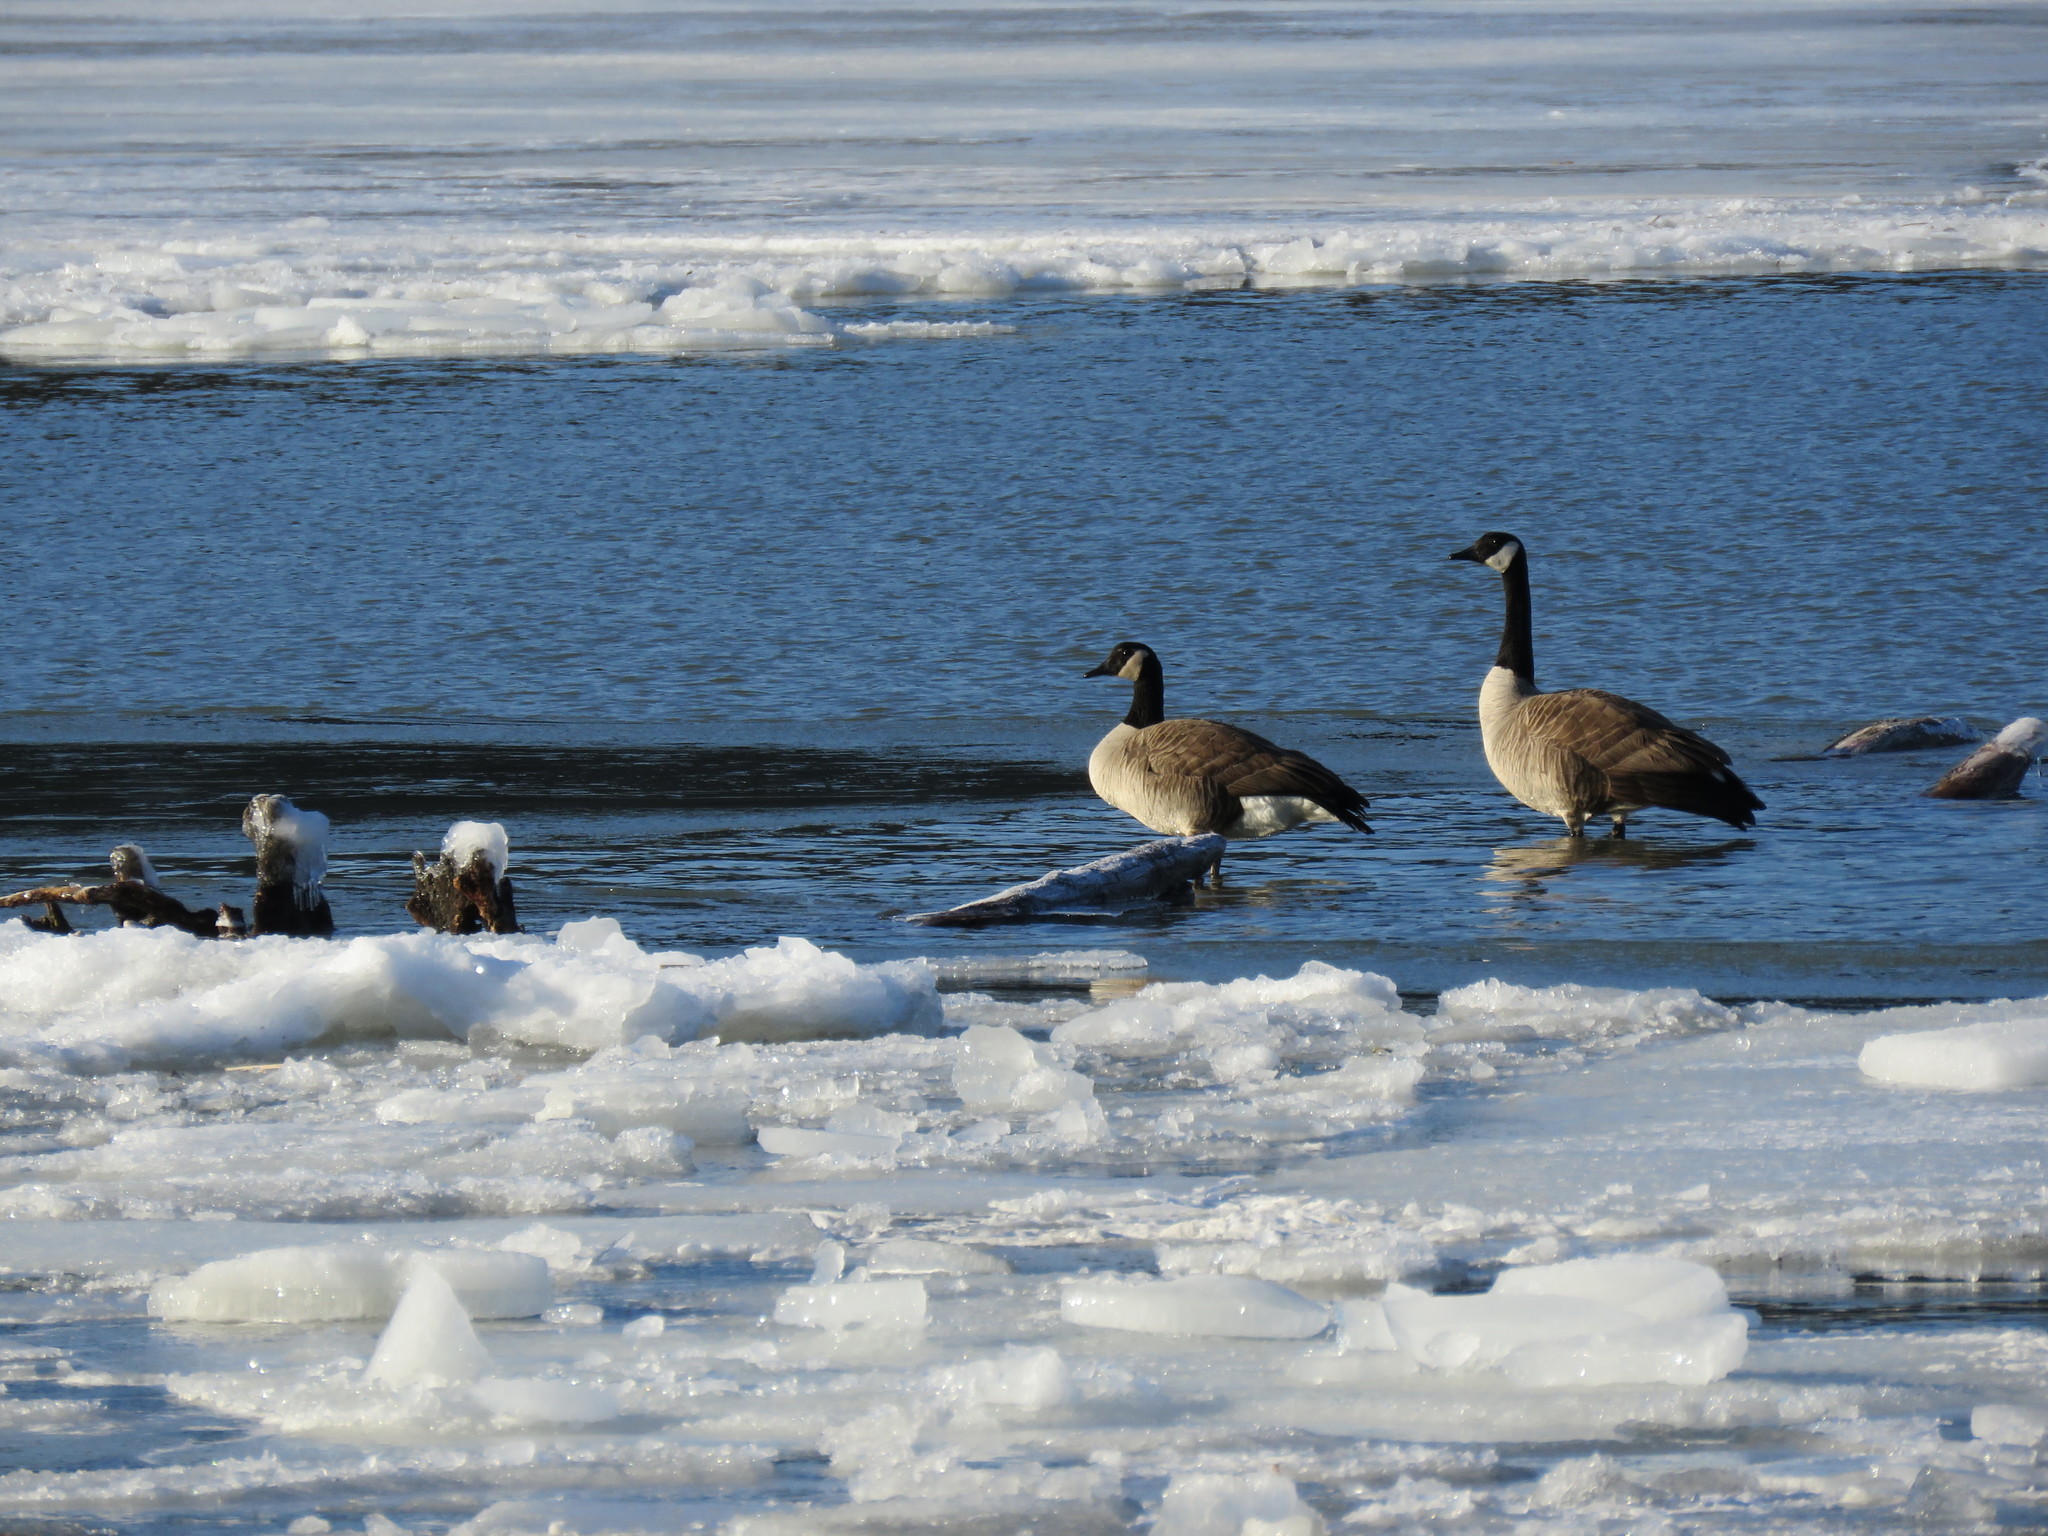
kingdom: Animalia
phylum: Chordata
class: Aves
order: Anseriformes
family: Anatidae
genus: Branta
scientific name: Branta canadensis
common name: Canada goose
